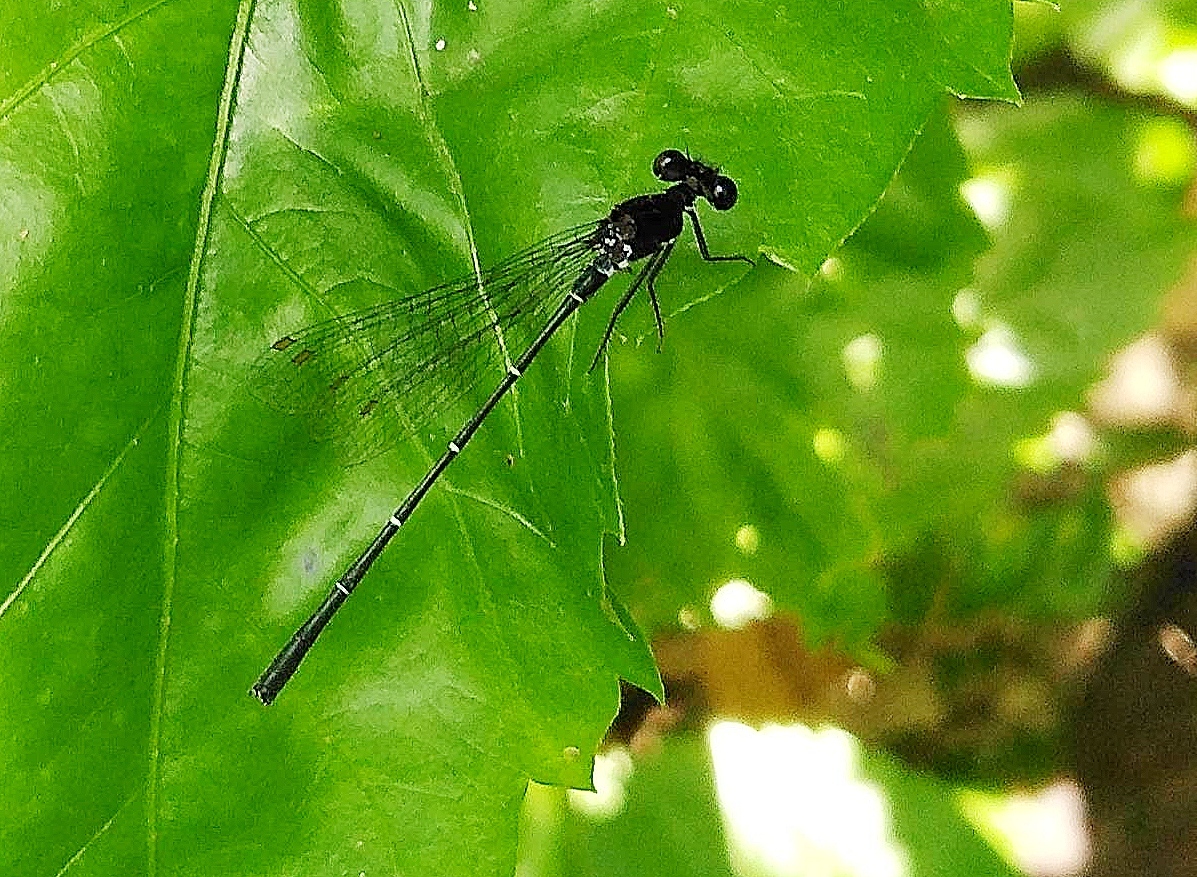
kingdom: Animalia
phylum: Arthropoda
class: Insecta
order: Odonata
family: Platycnemididae
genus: Onychargia
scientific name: Onychargia atrocyana
